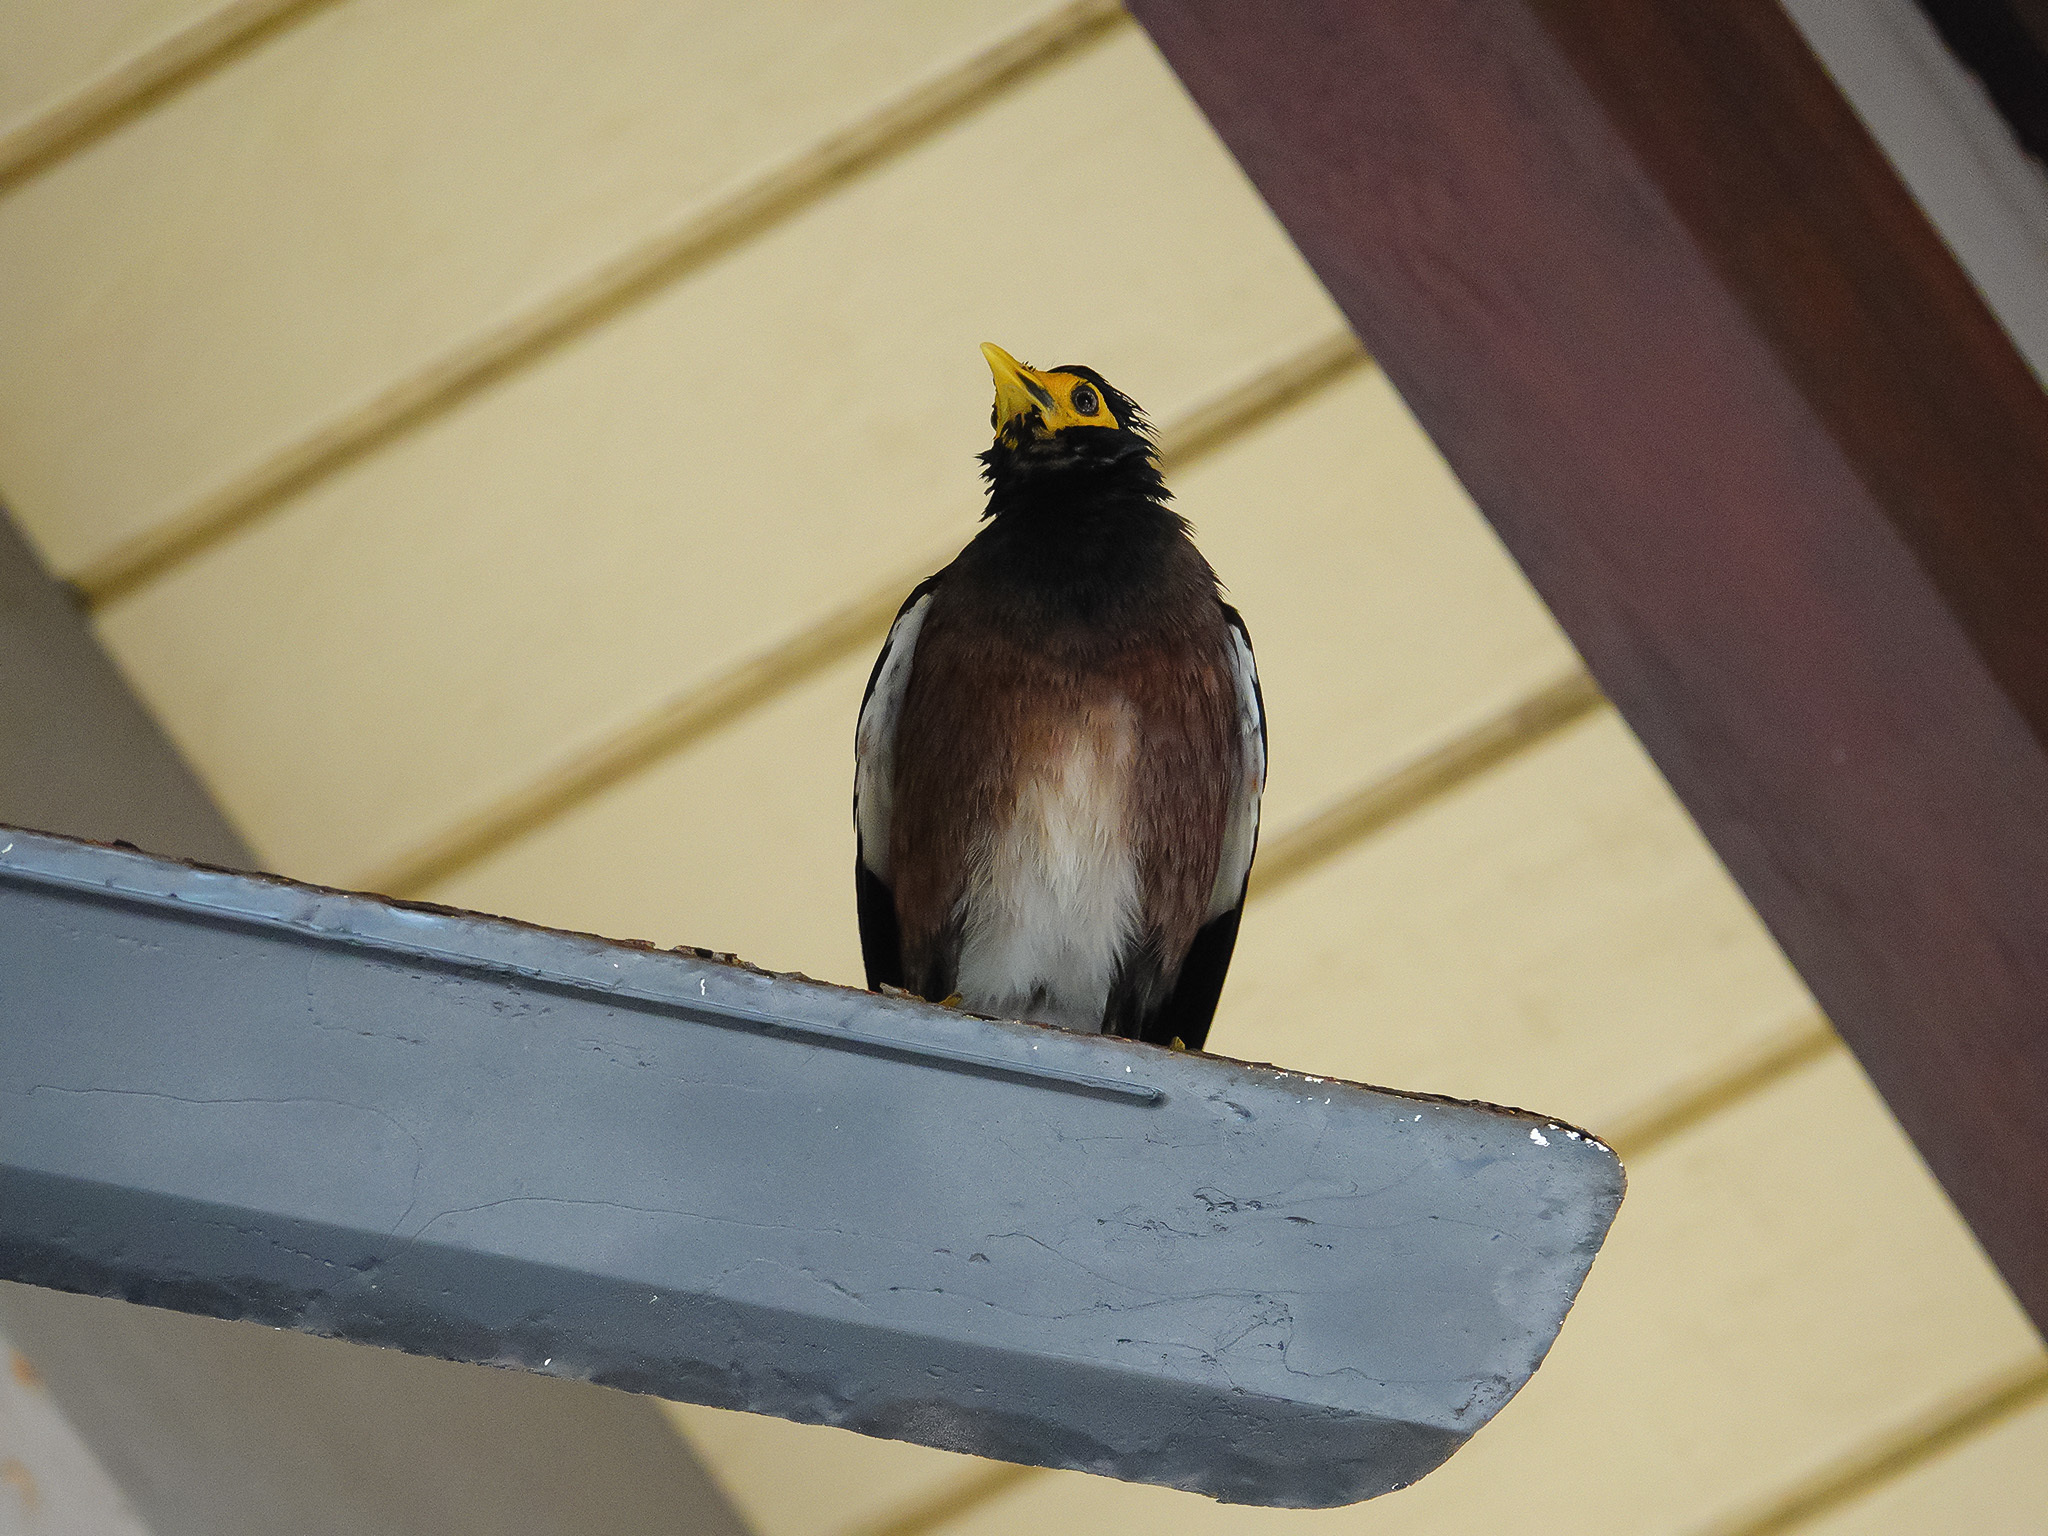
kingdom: Animalia
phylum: Chordata
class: Aves
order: Passeriformes
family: Sturnidae
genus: Acridotheres
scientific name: Acridotheres tristis
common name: Common myna
